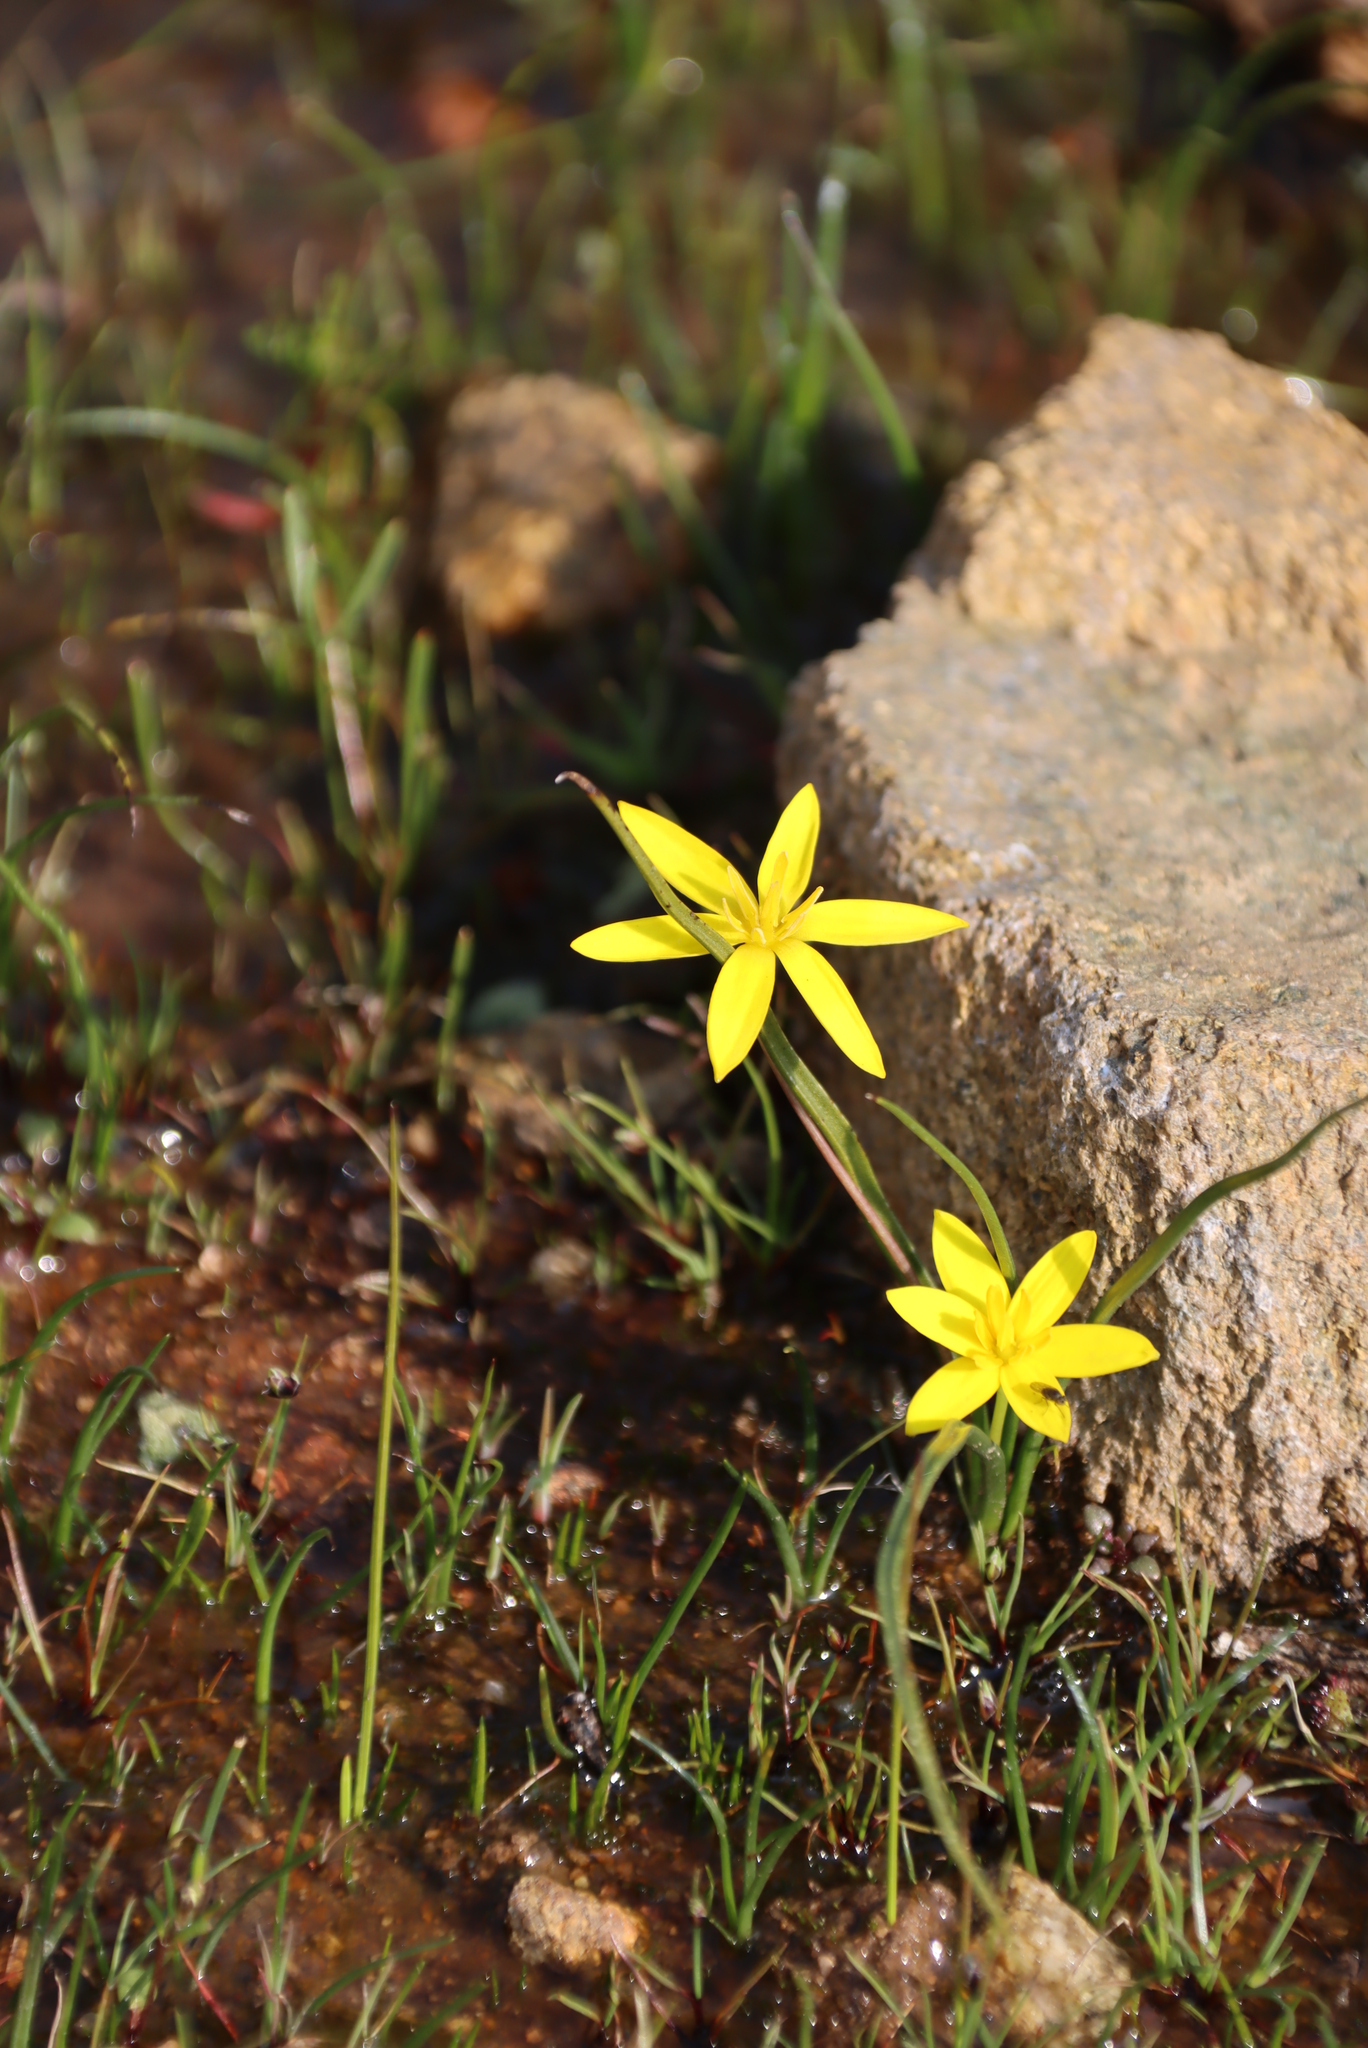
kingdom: Plantae
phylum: Tracheophyta
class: Liliopsida
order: Asparagales
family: Hypoxidaceae
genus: Pauridia
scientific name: Pauridia gracilipes
